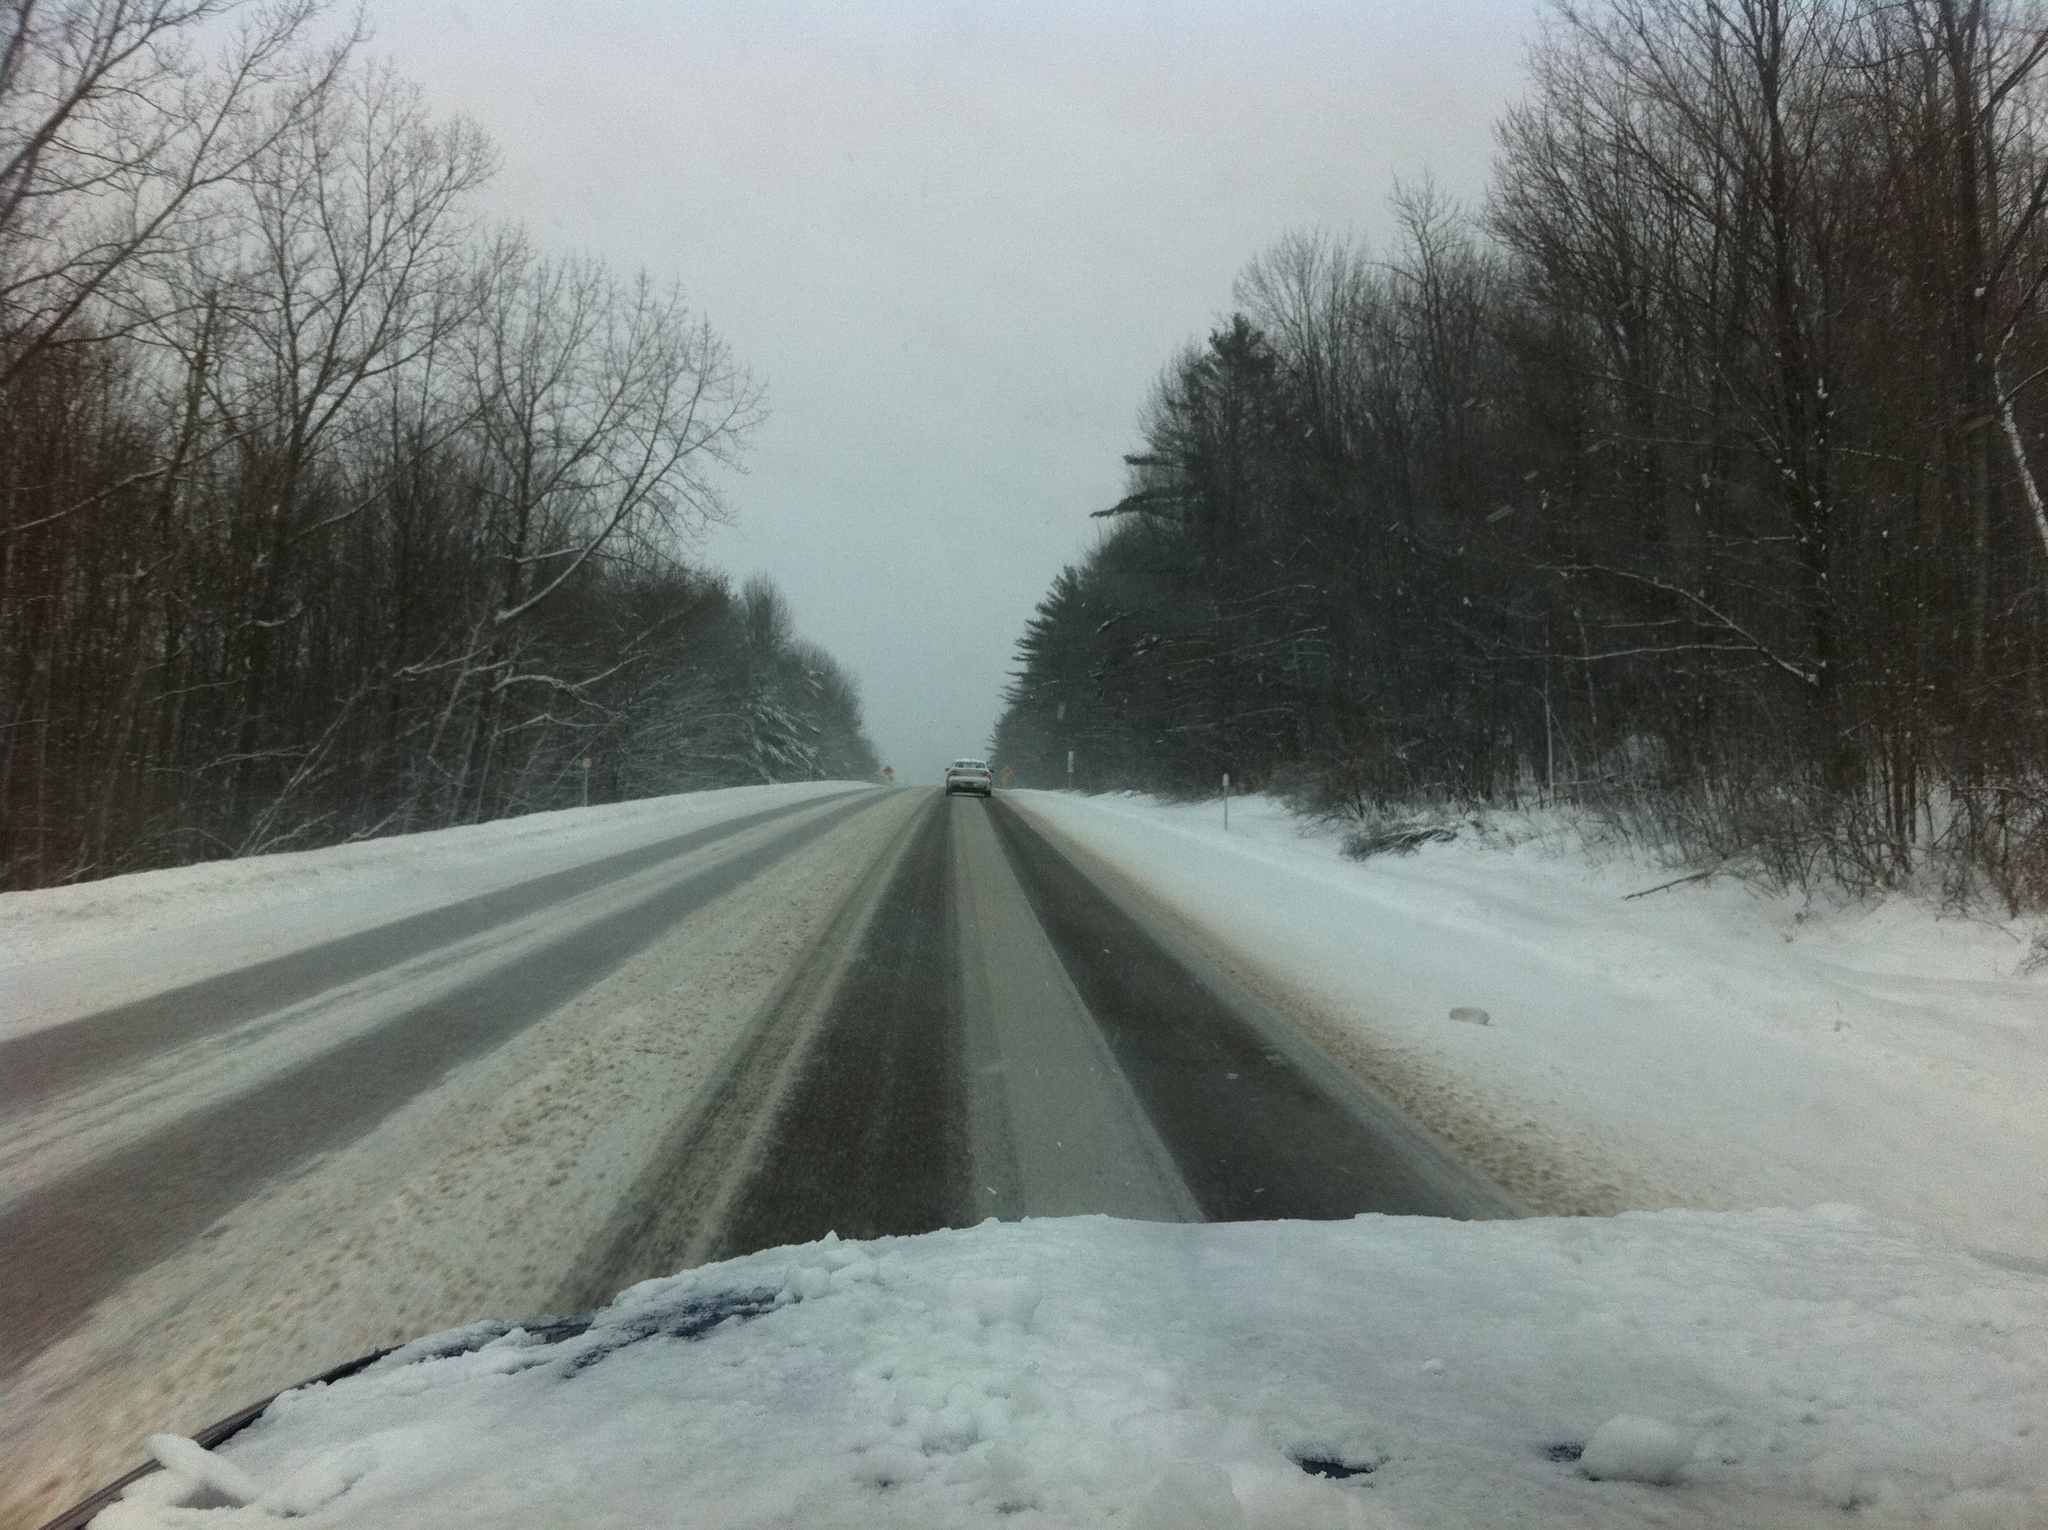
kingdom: Plantae
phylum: Tracheophyta
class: Pinopsida
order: Pinales
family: Pinaceae
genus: Pinus
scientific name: Pinus strobus
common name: Weymouth pine
